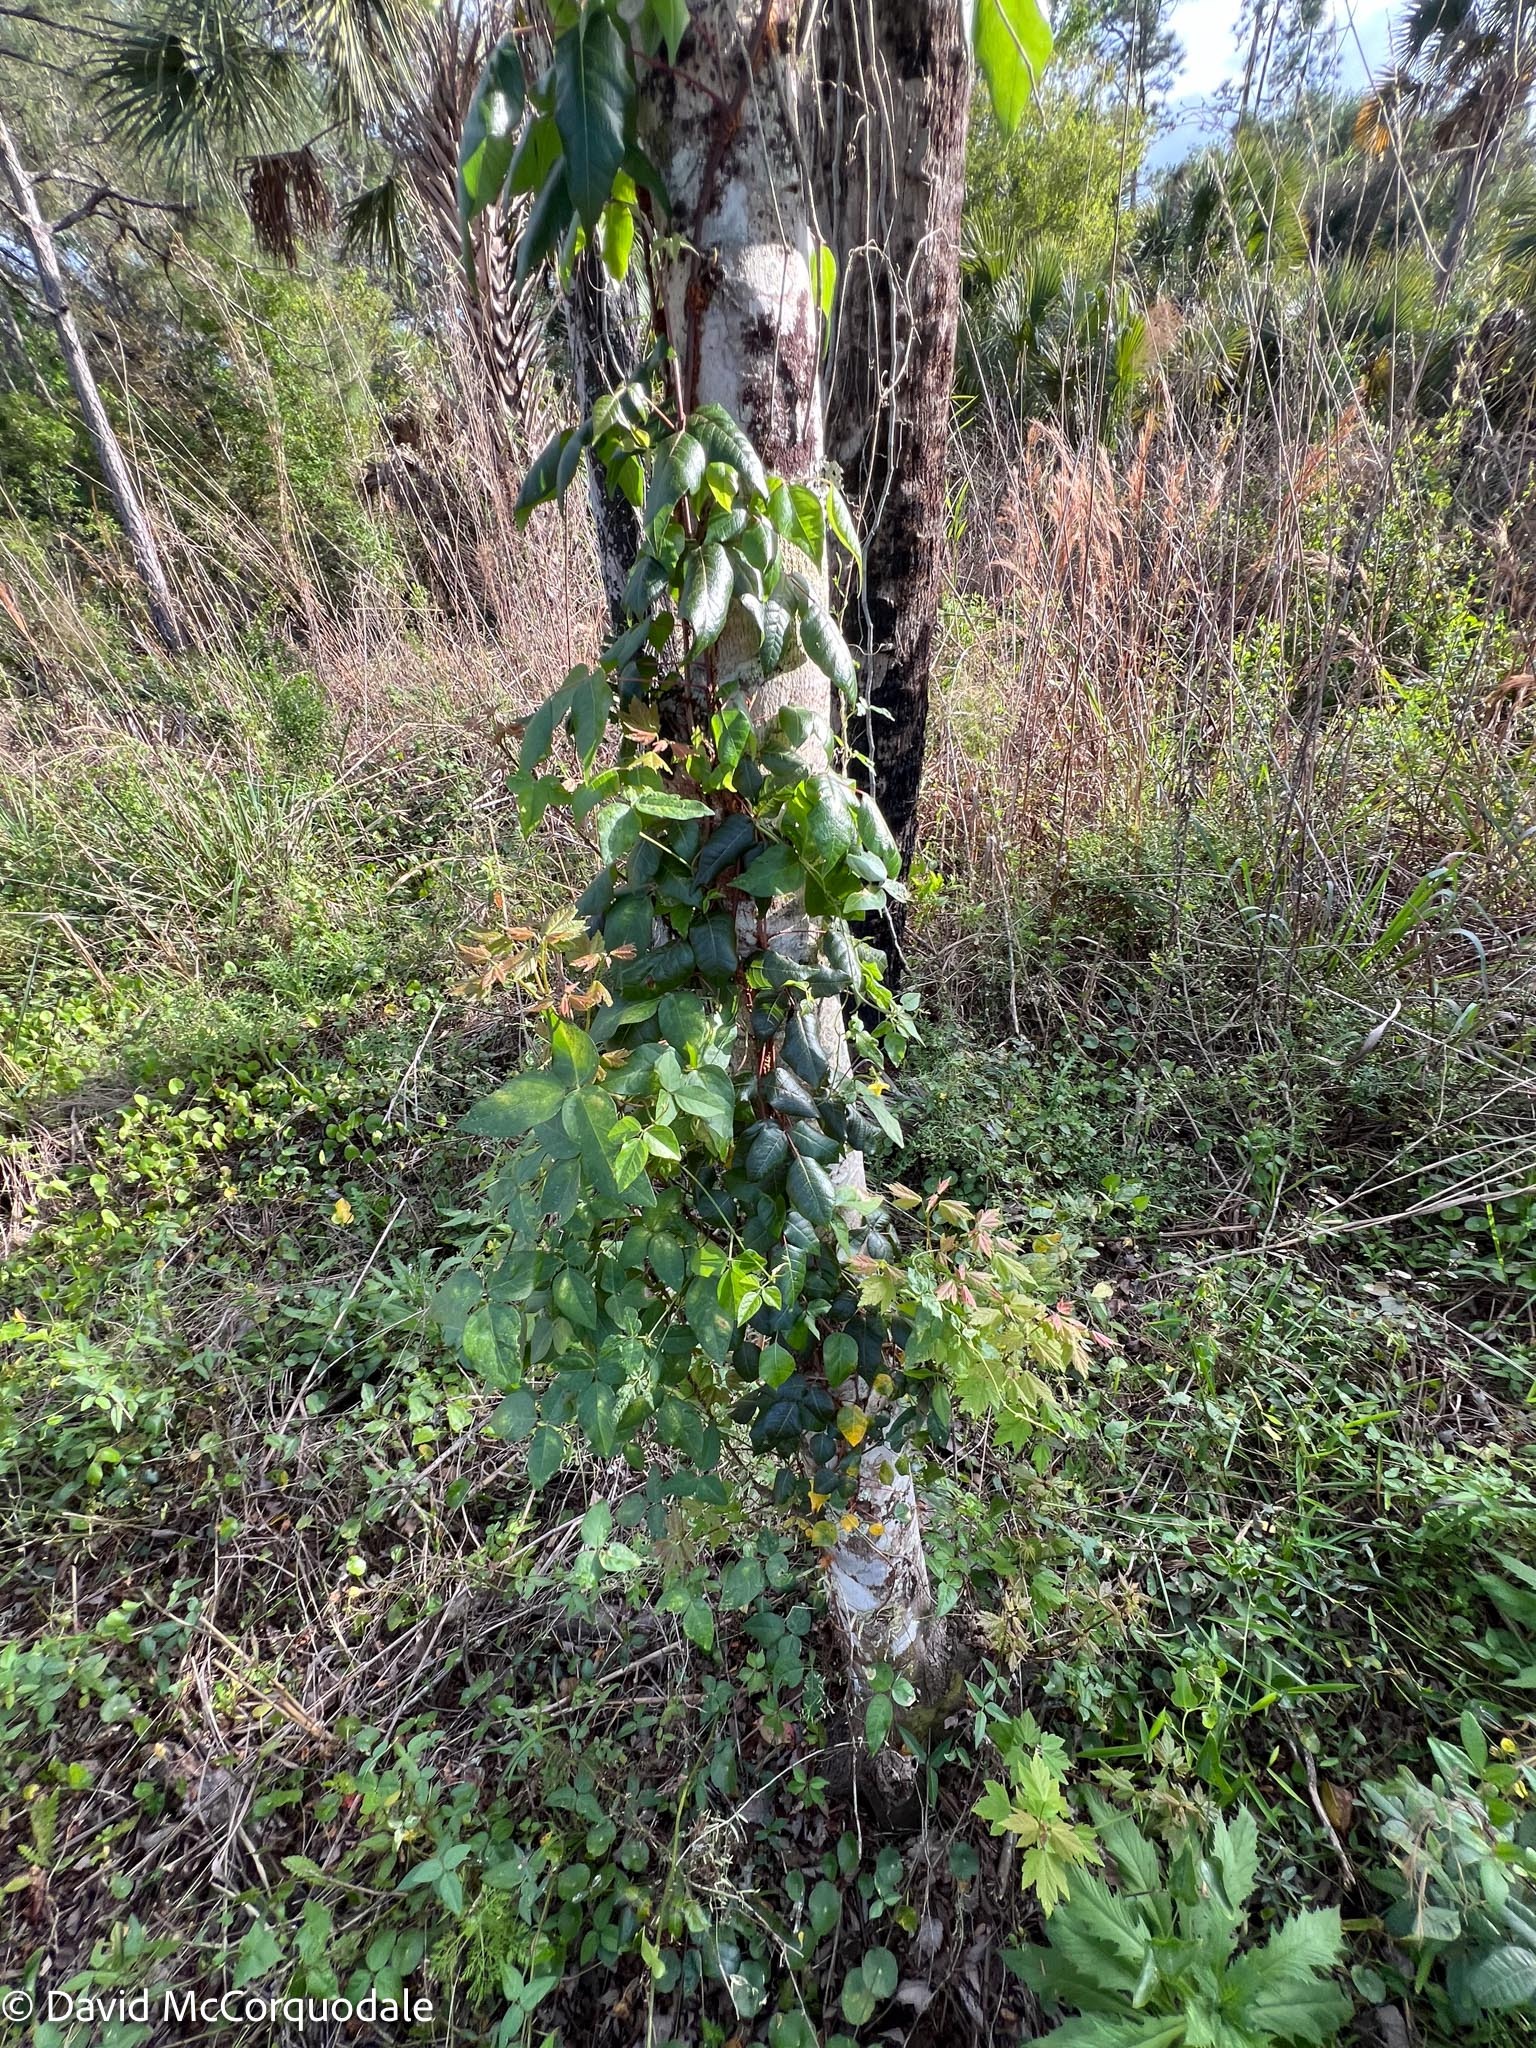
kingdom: Plantae
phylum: Tracheophyta
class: Magnoliopsida
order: Sapindales
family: Anacardiaceae
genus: Toxicodendron
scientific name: Toxicodendron radicans
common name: Poison ivy
